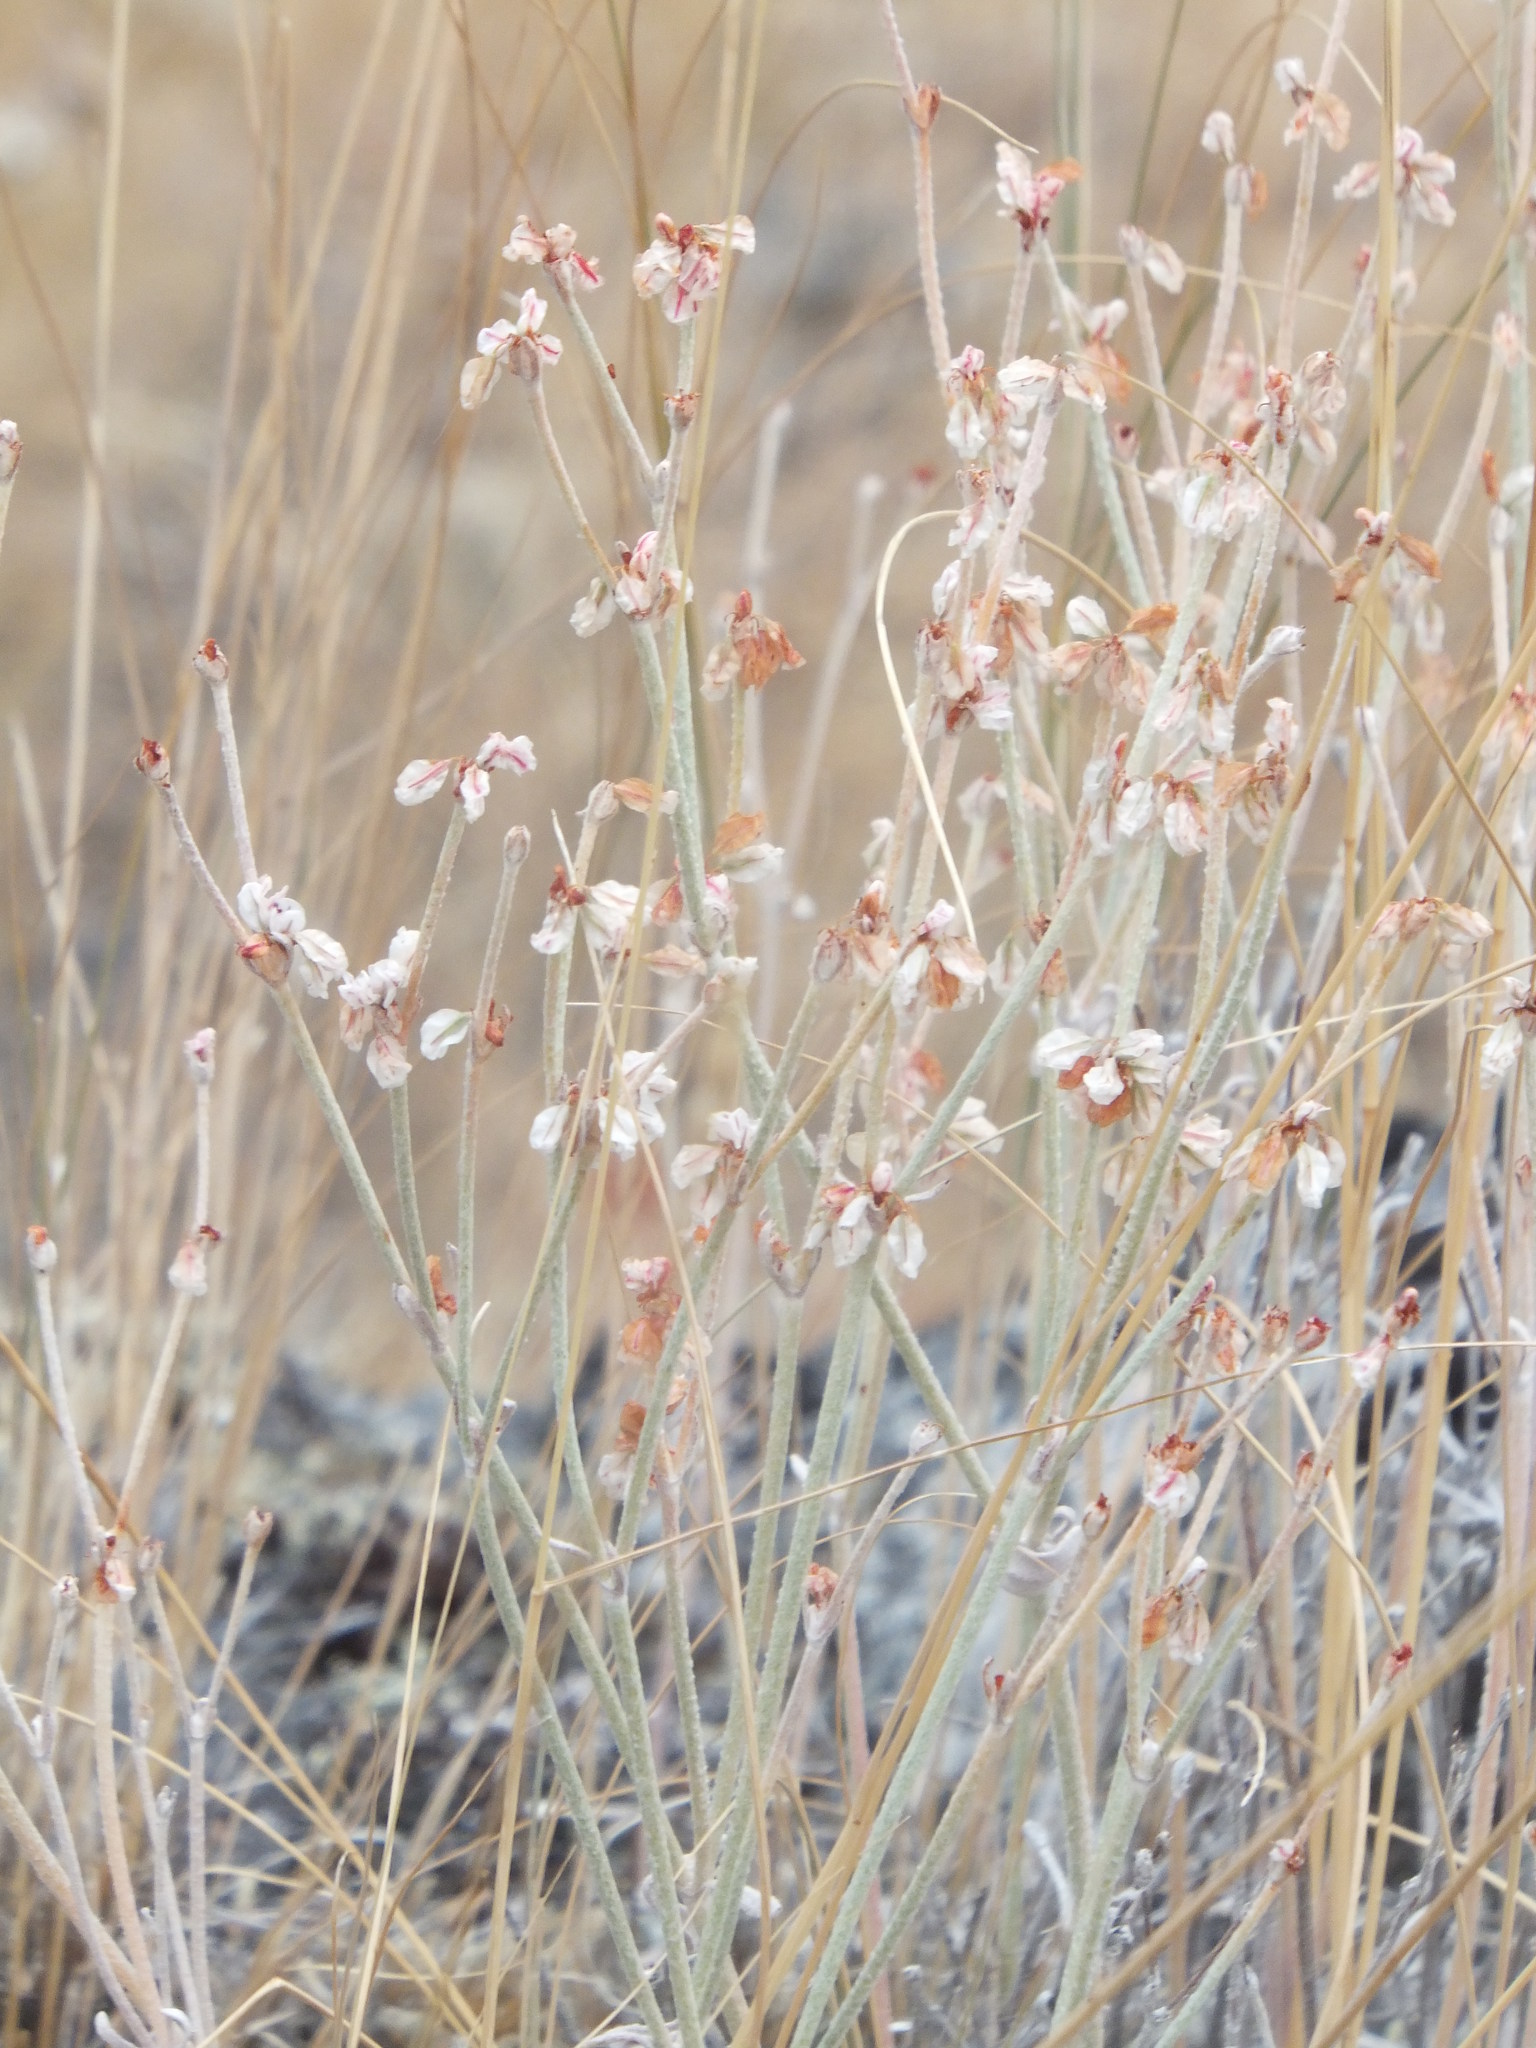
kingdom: Plantae
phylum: Tracheophyta
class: Magnoliopsida
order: Caryophyllales
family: Polygonaceae
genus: Eriogonum
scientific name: Eriogonum niveum
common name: Snow wild buckwheat
